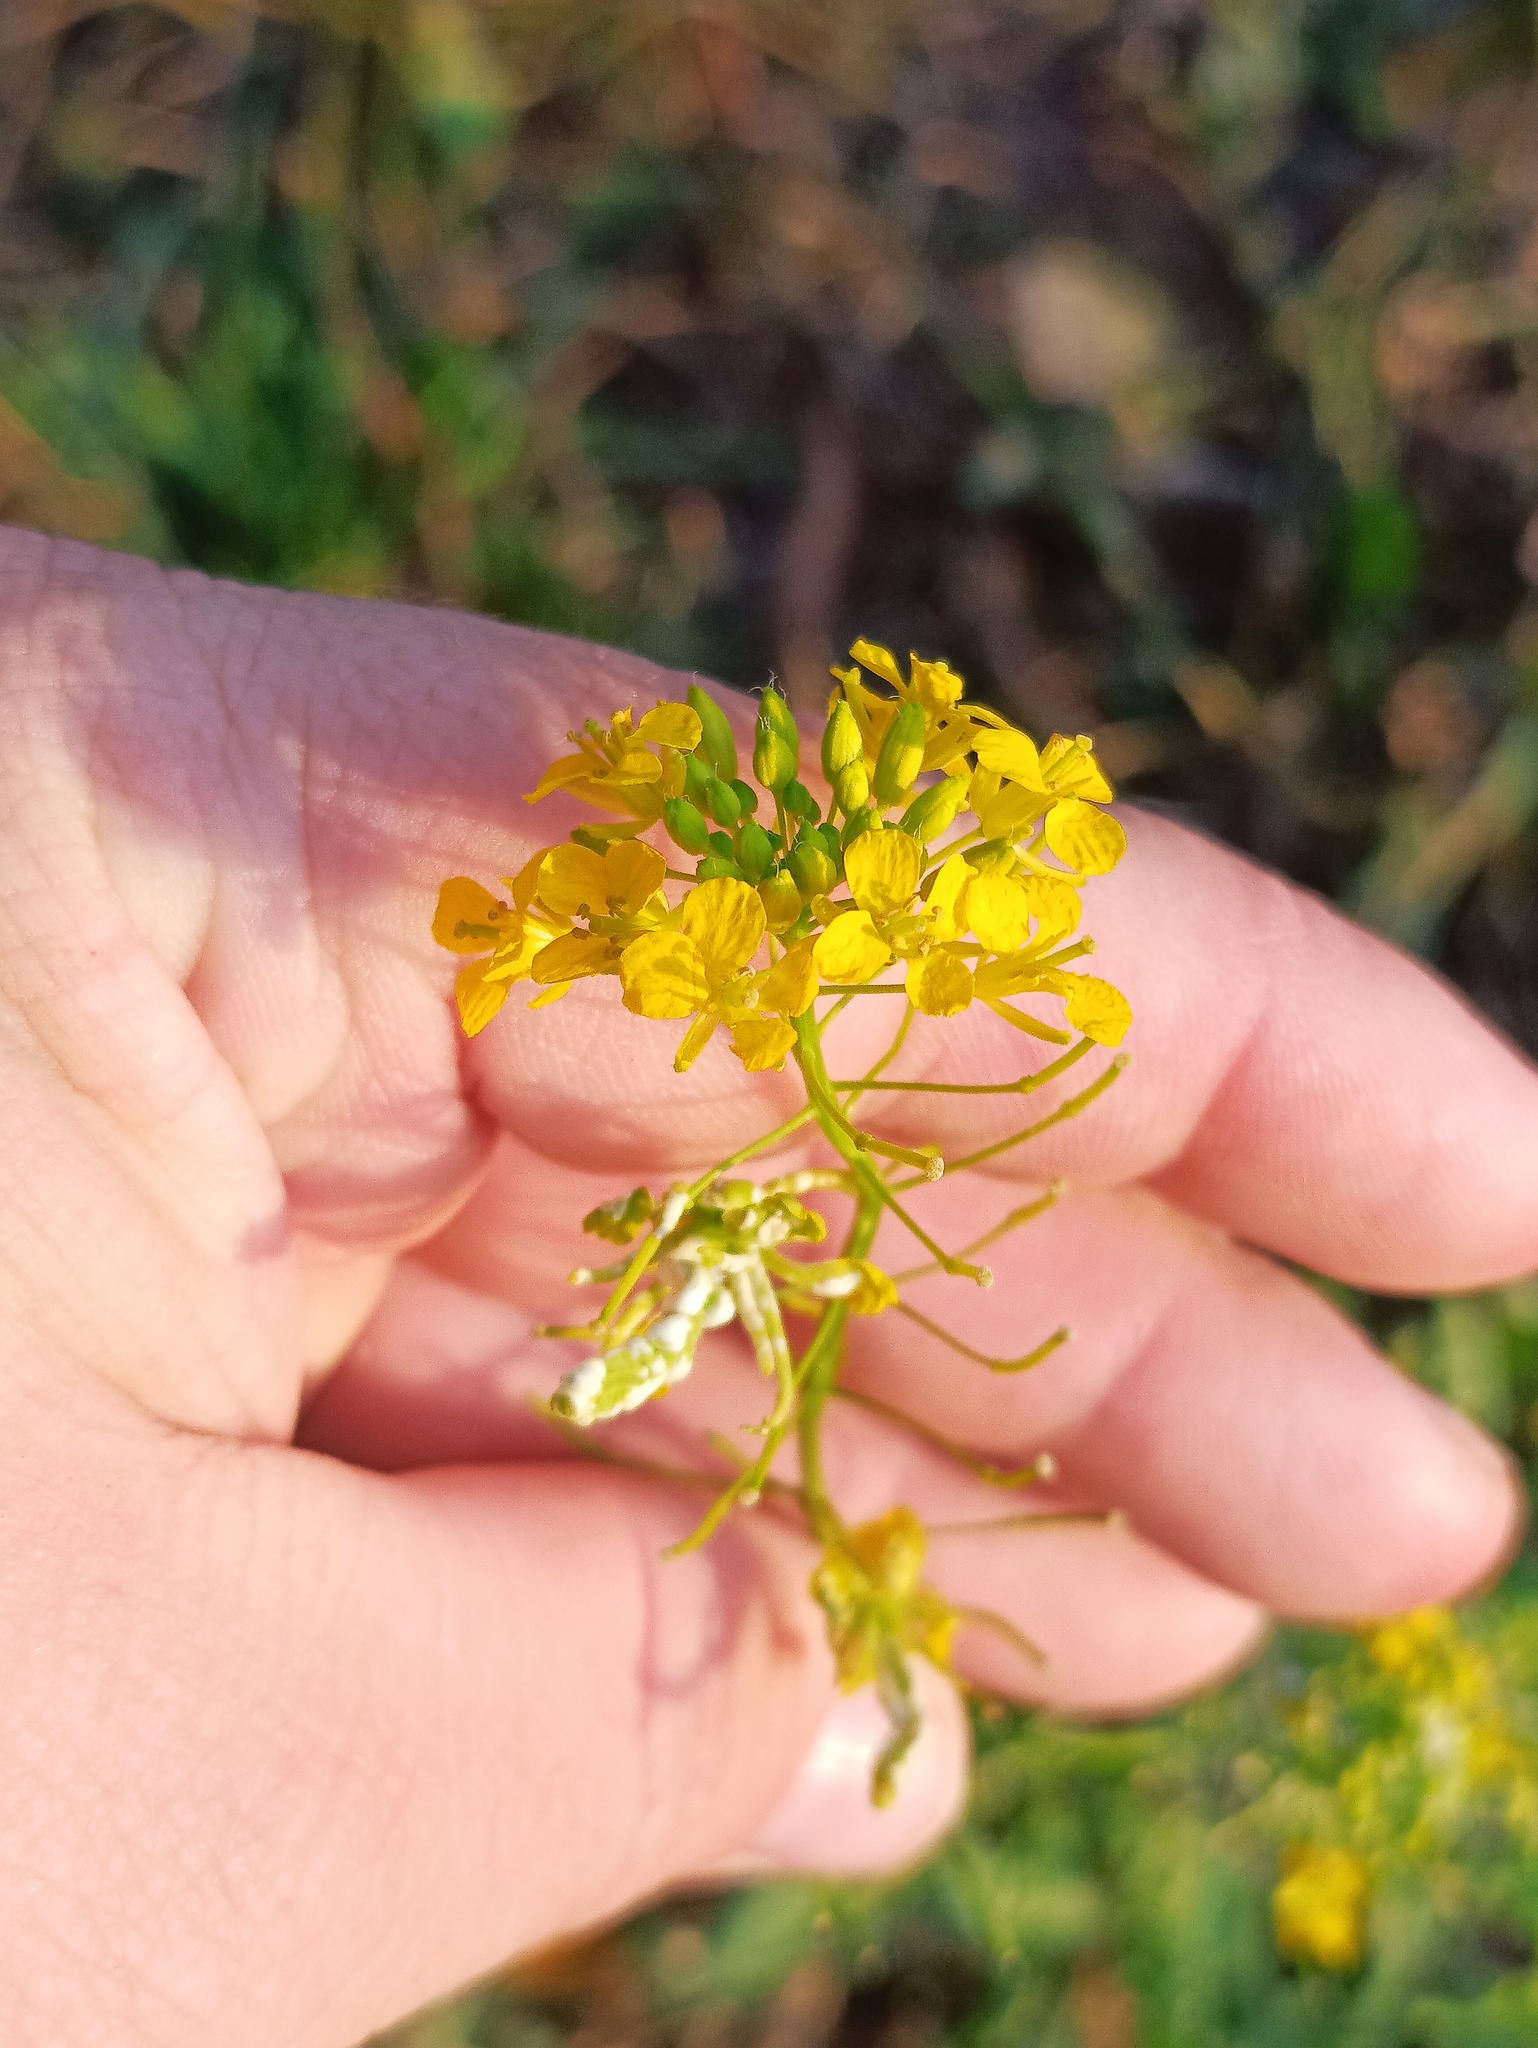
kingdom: Plantae
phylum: Tracheophyta
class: Magnoliopsida
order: Brassicales
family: Brassicaceae
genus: Sisymbrium
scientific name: Sisymbrium loeselii
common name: False london-rocket
